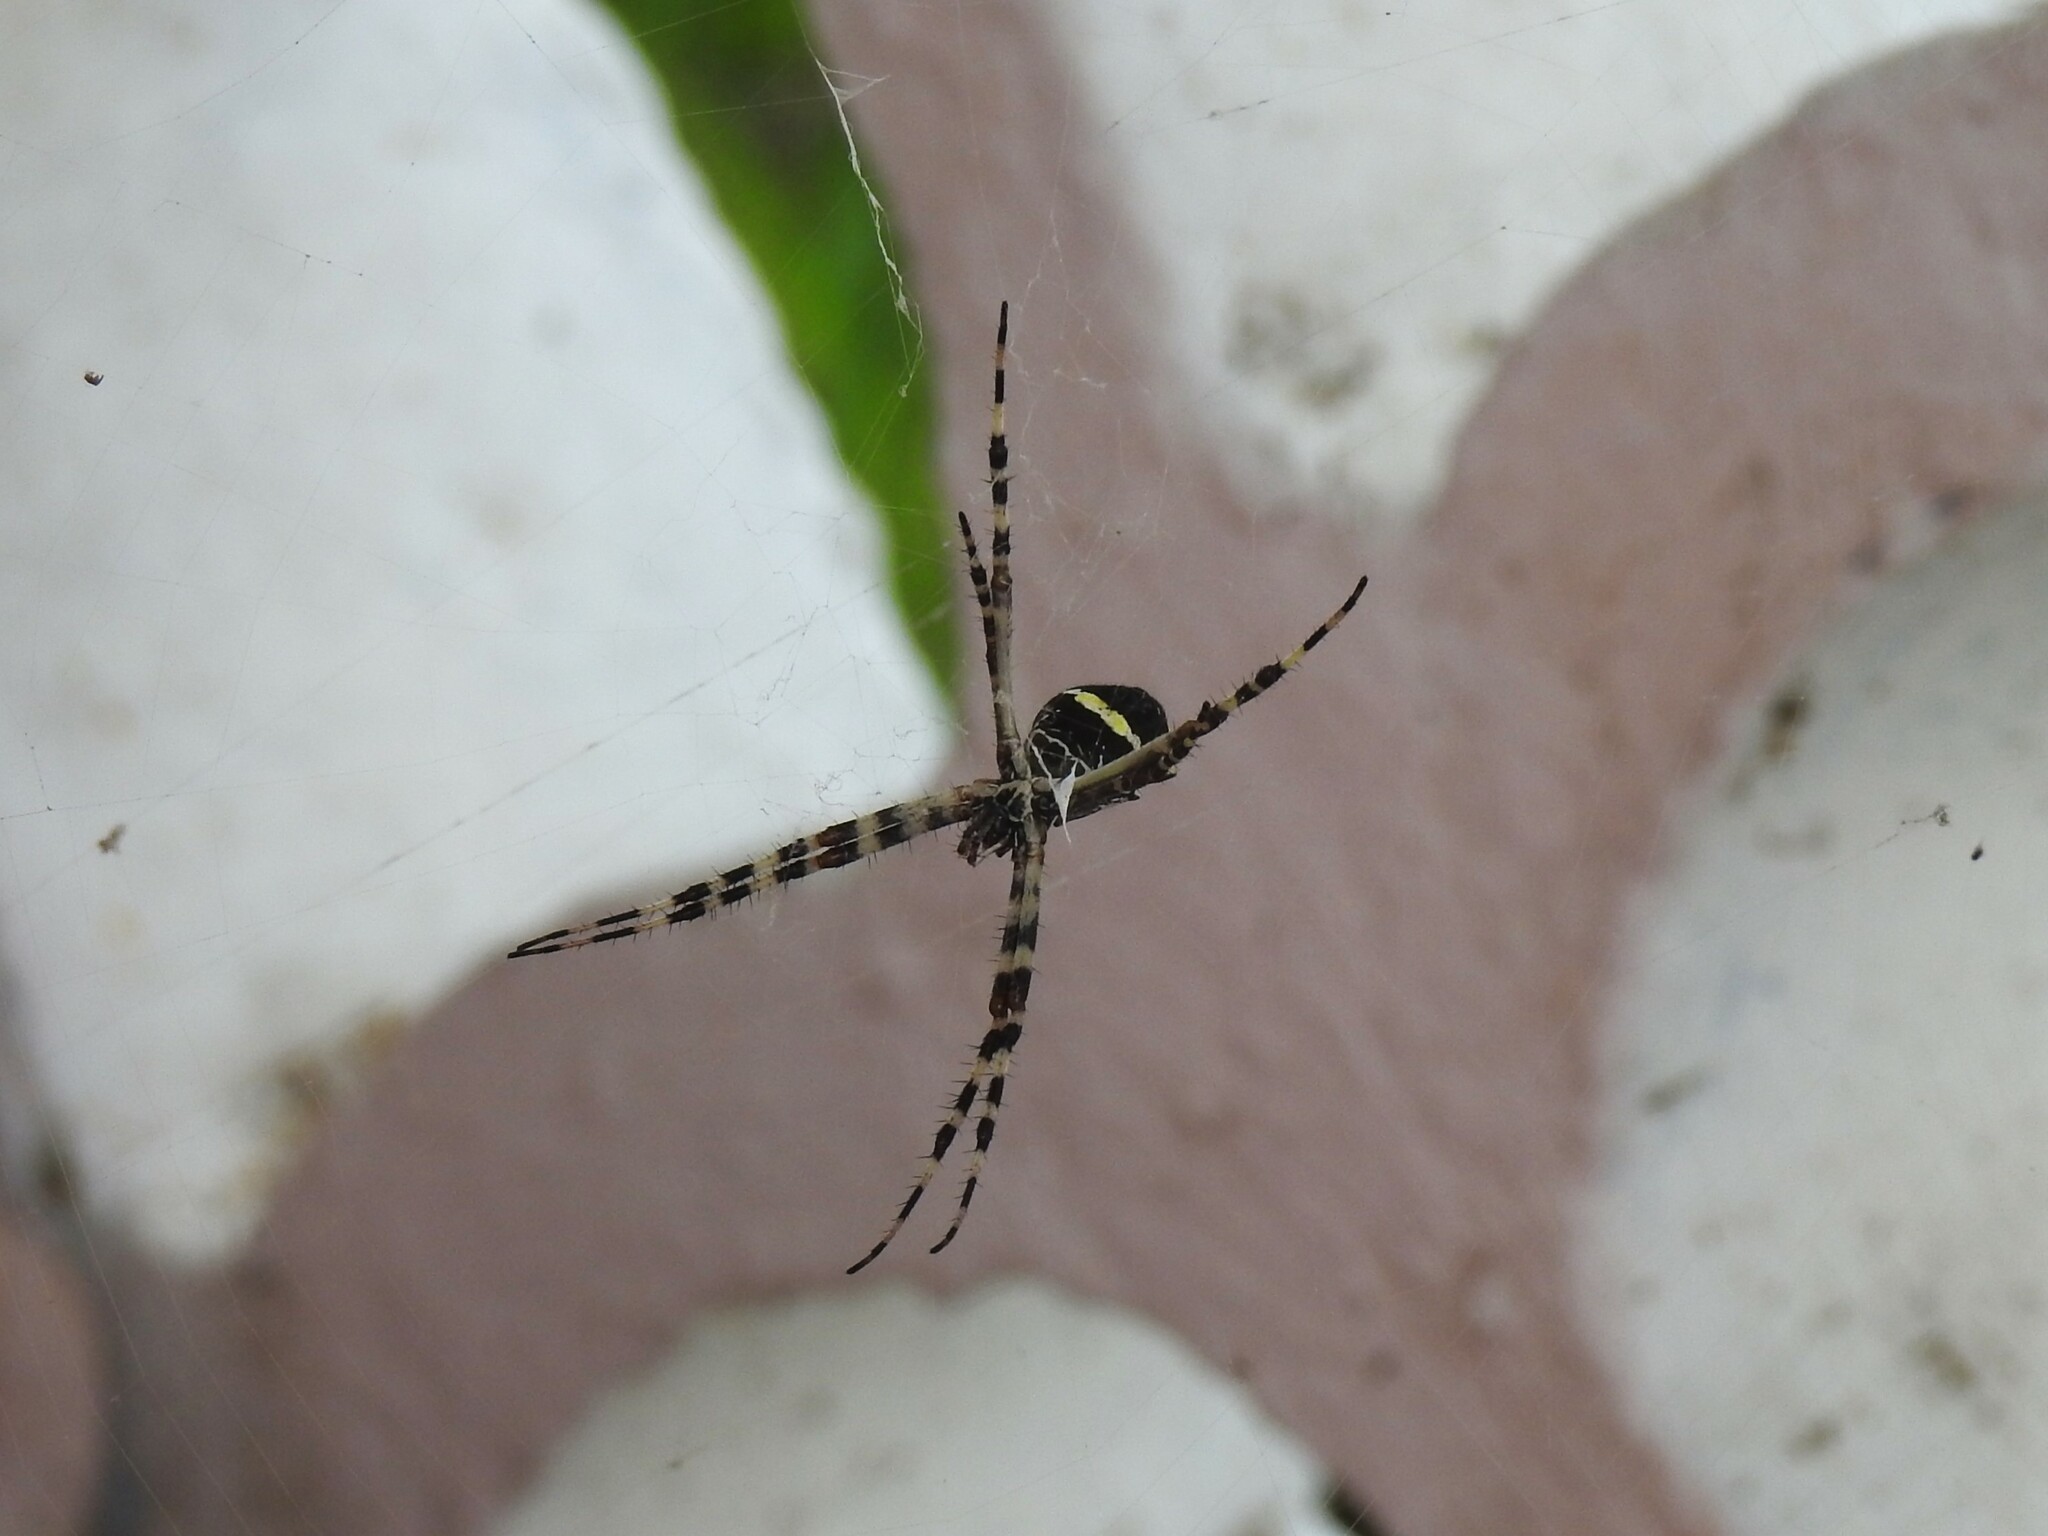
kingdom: Animalia
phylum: Arthropoda
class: Arachnida
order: Araneae
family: Araneidae
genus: Argiope
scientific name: Argiope argentata
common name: Orb weavers
